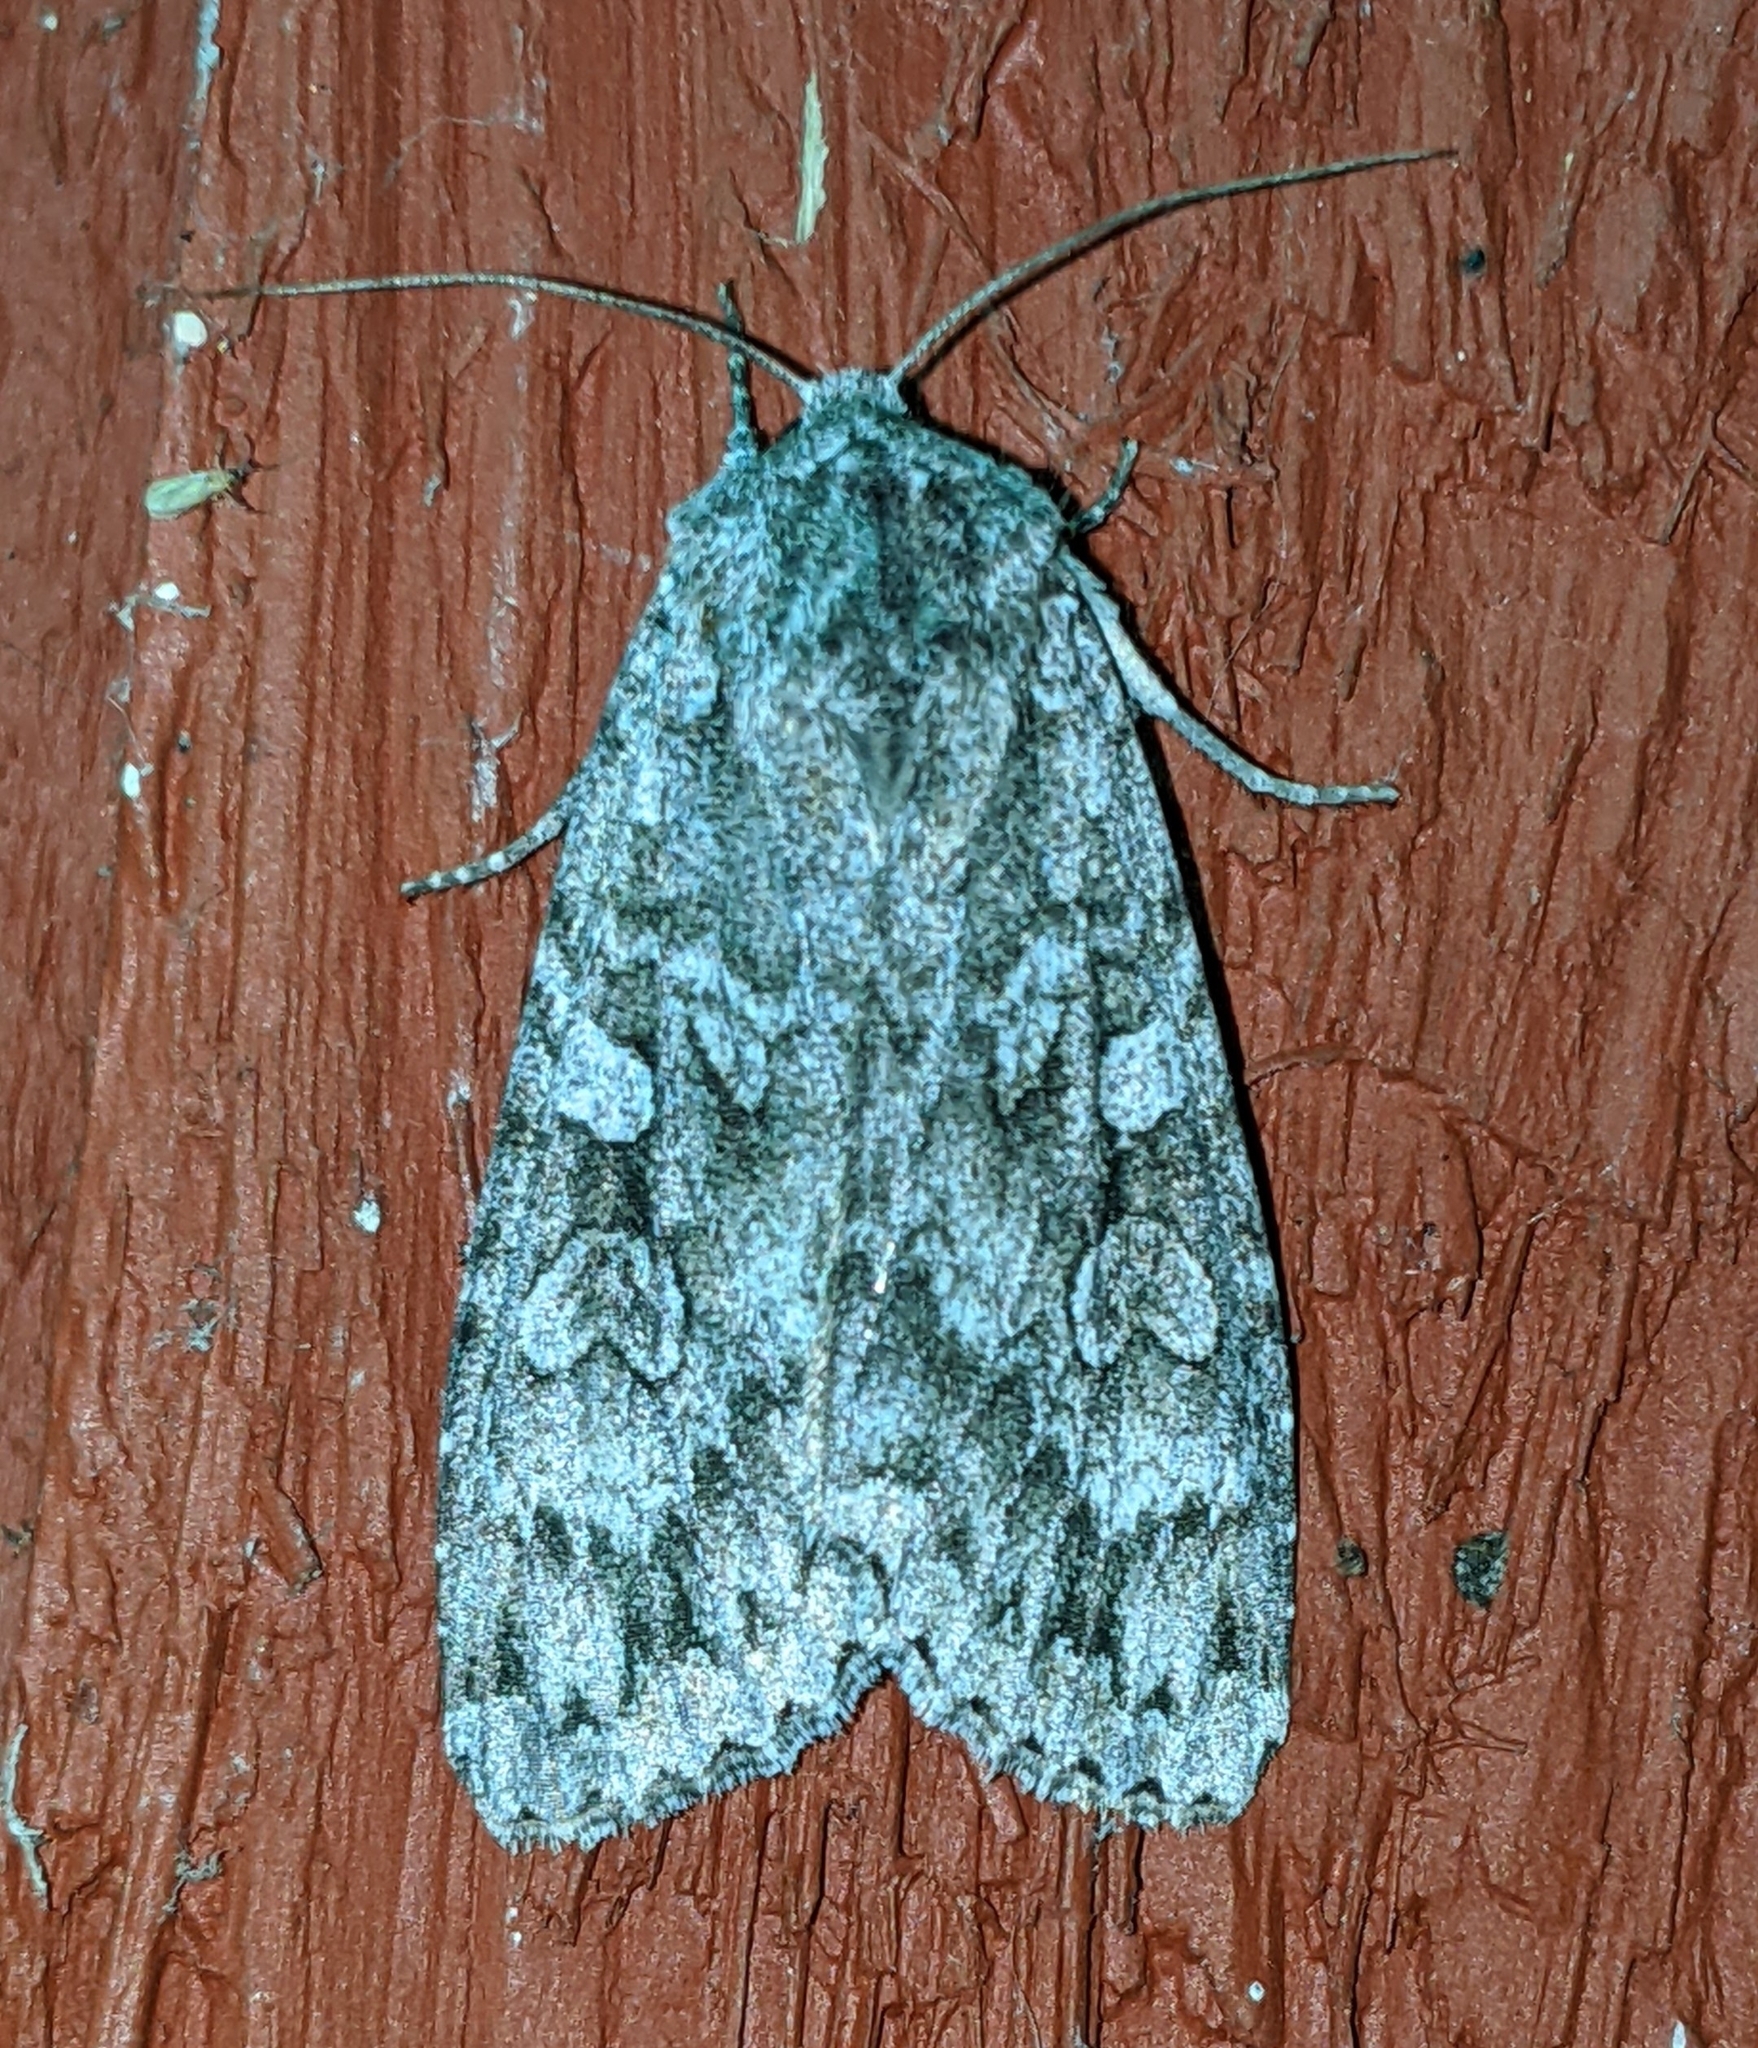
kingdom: Animalia
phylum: Arthropoda
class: Insecta
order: Lepidoptera
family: Noctuidae
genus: Eurois
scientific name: Eurois occulta
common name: Great brocade
